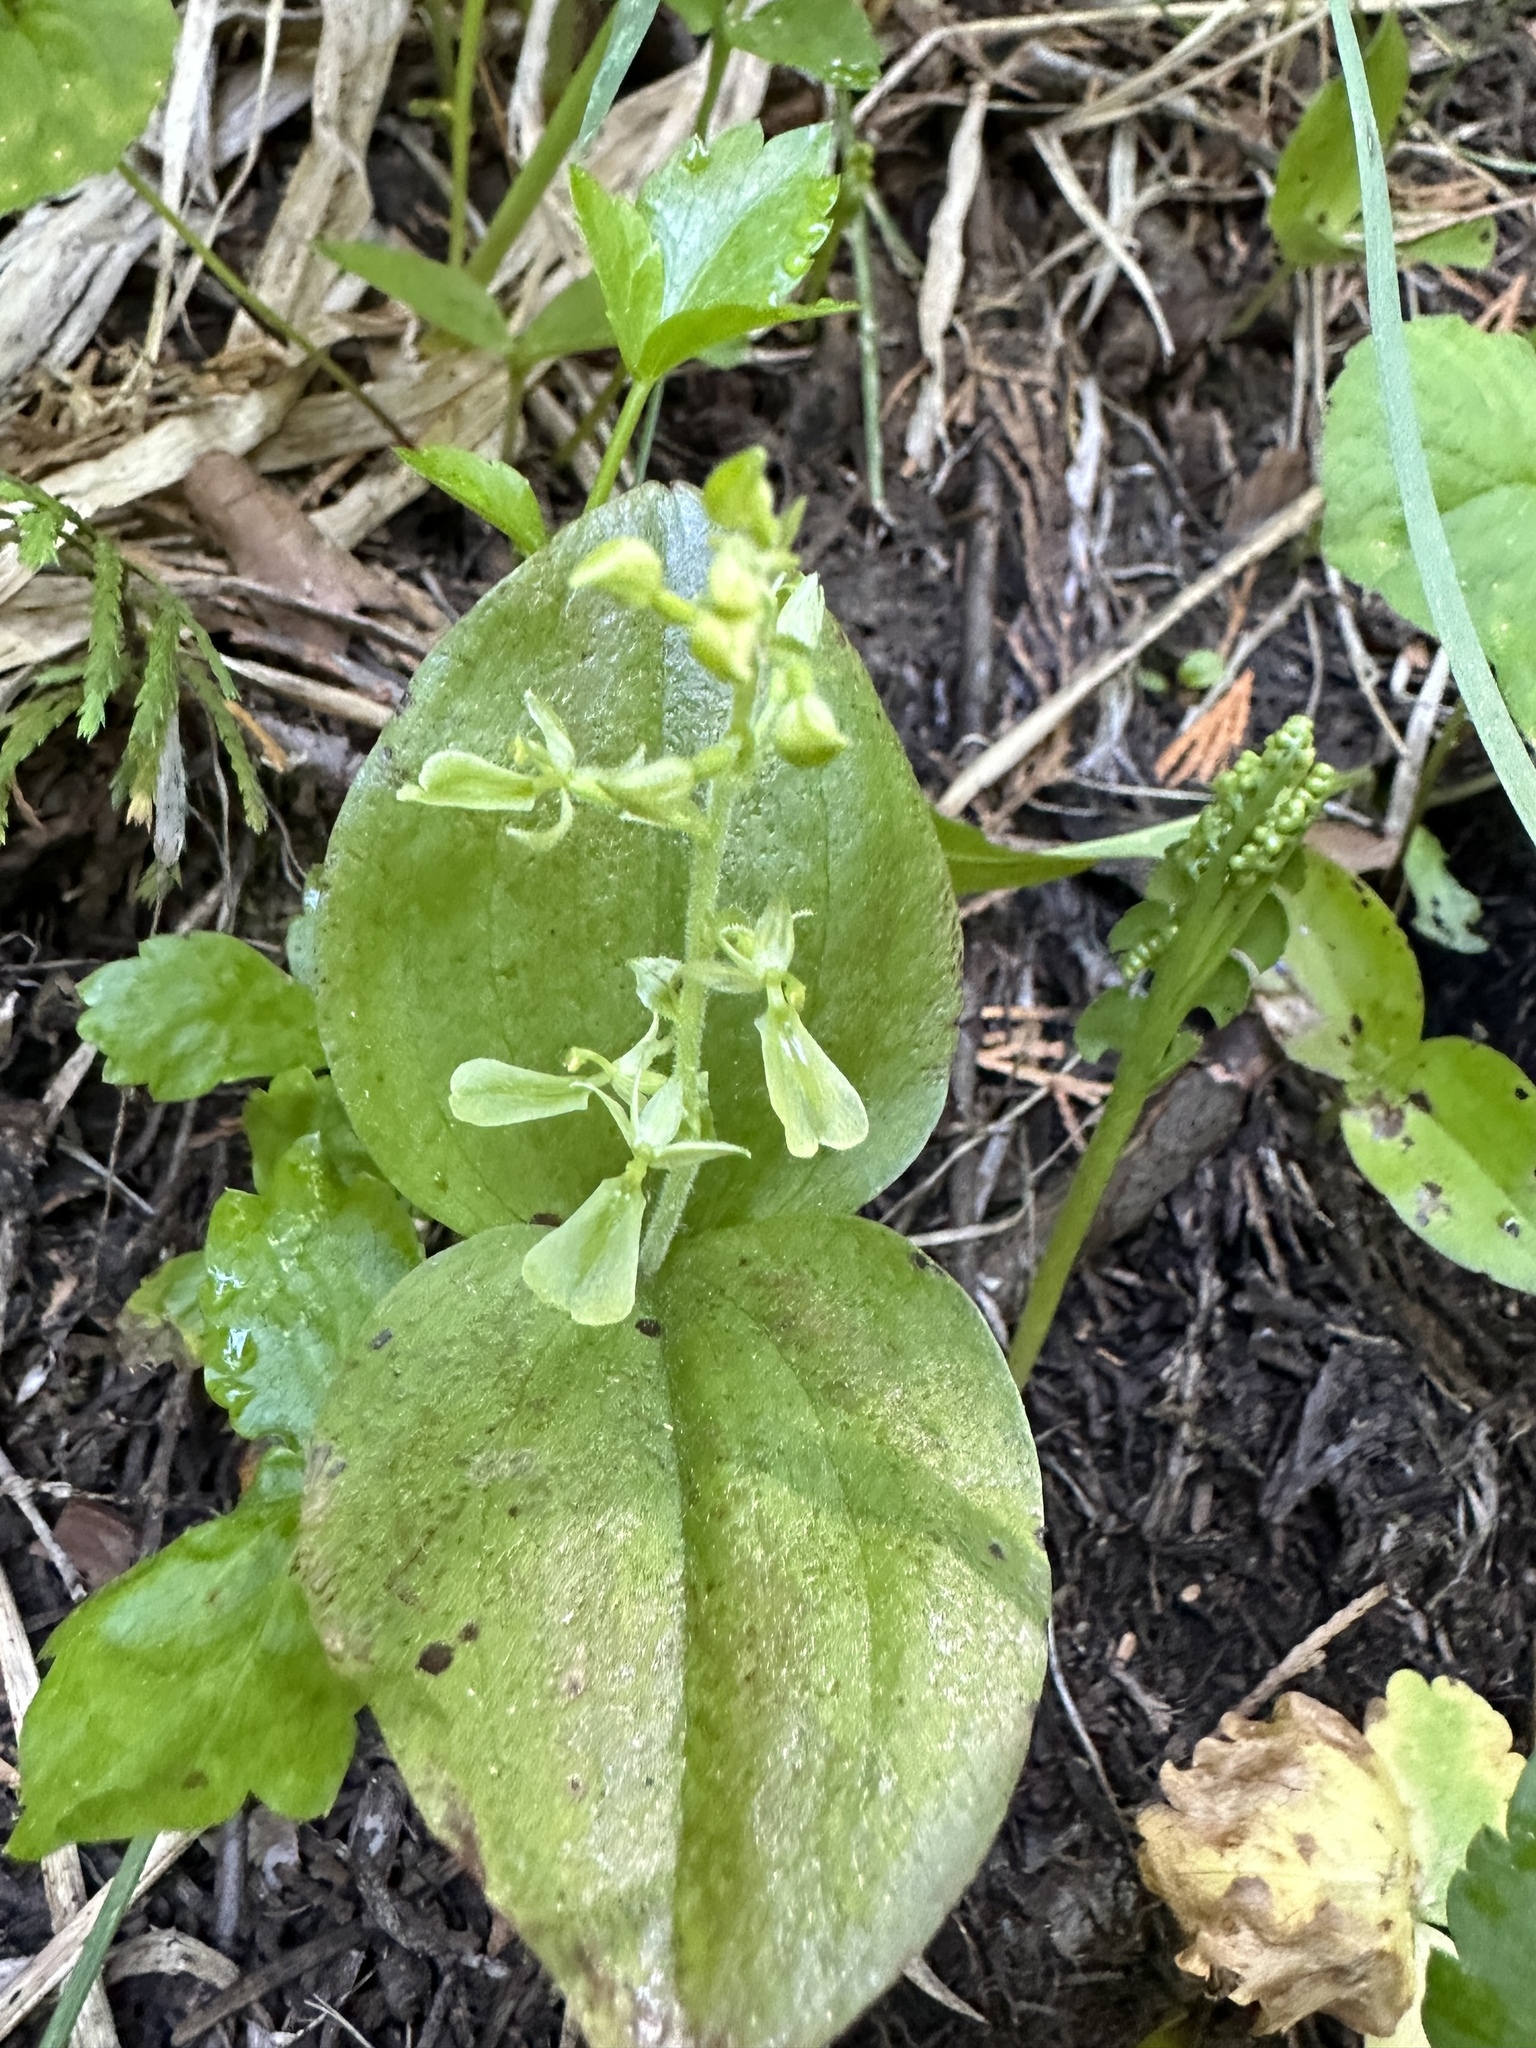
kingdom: Plantae
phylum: Tracheophyta
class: Liliopsida
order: Asparagales
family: Orchidaceae
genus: Neottia
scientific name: Neottia convallarioides
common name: Broadleaf twayblade
